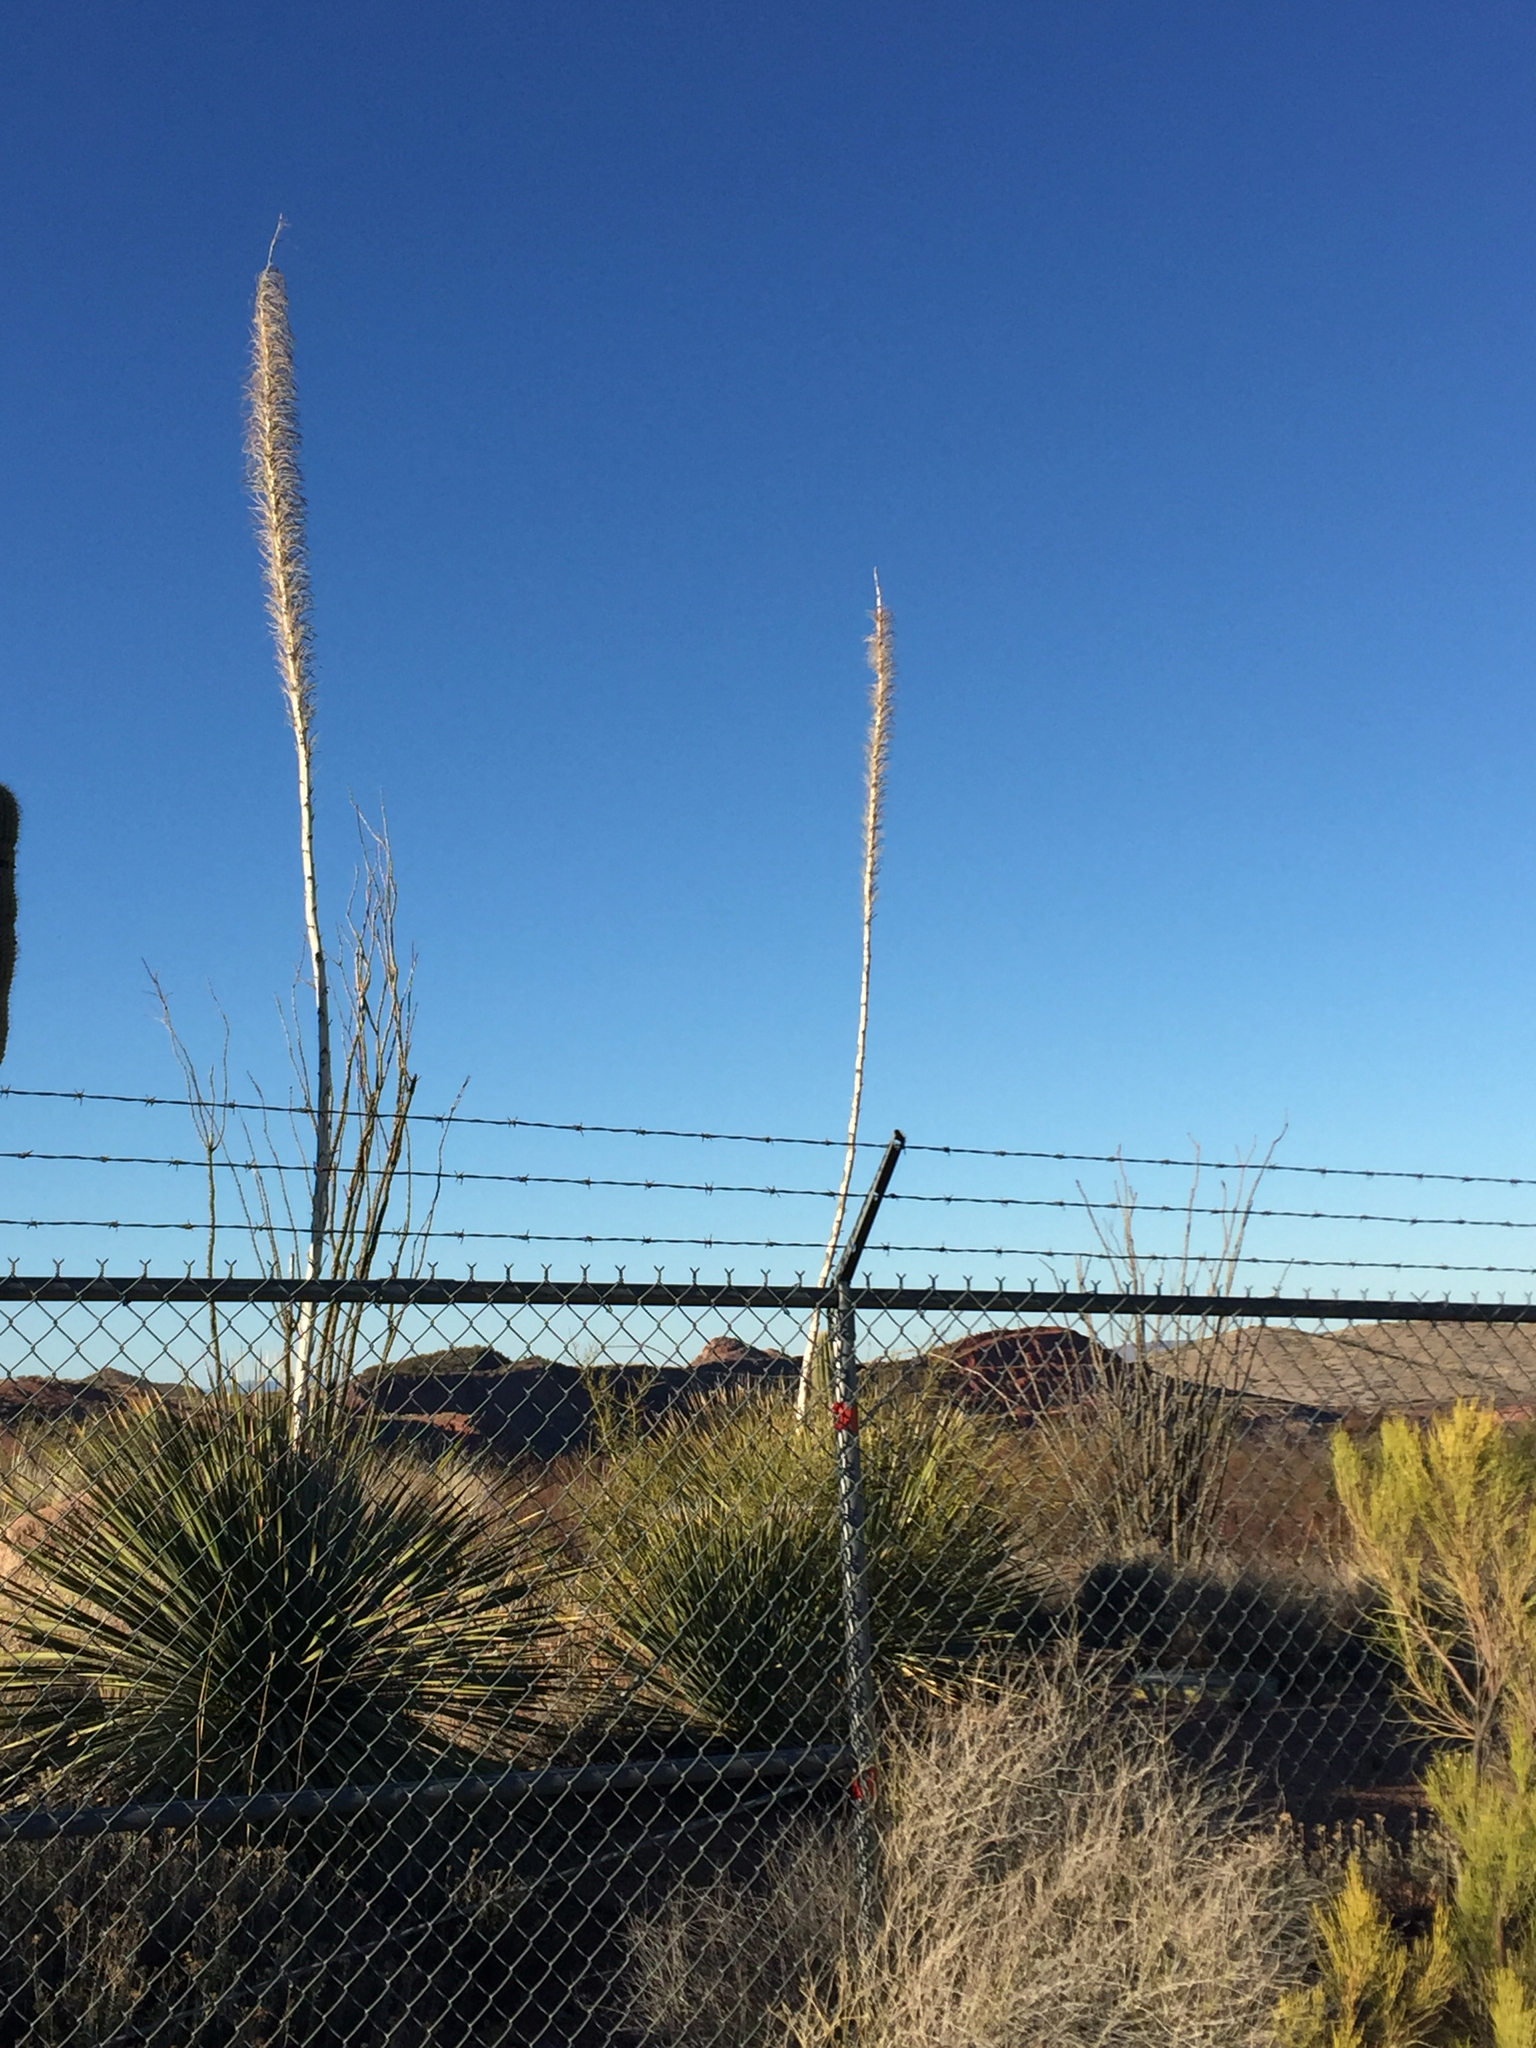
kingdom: Plantae
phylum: Tracheophyta
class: Liliopsida
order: Asparagales
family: Asparagaceae
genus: Dasylirion
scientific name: Dasylirion wheeleri
